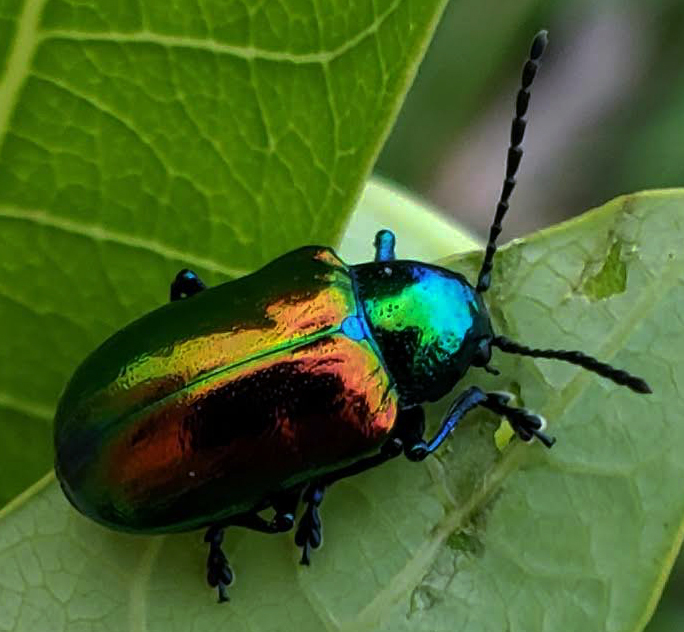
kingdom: Animalia
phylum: Arthropoda
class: Insecta
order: Coleoptera
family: Chrysomelidae
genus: Chrysochus
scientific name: Chrysochus auratus
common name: Dogbane leaf beetle
